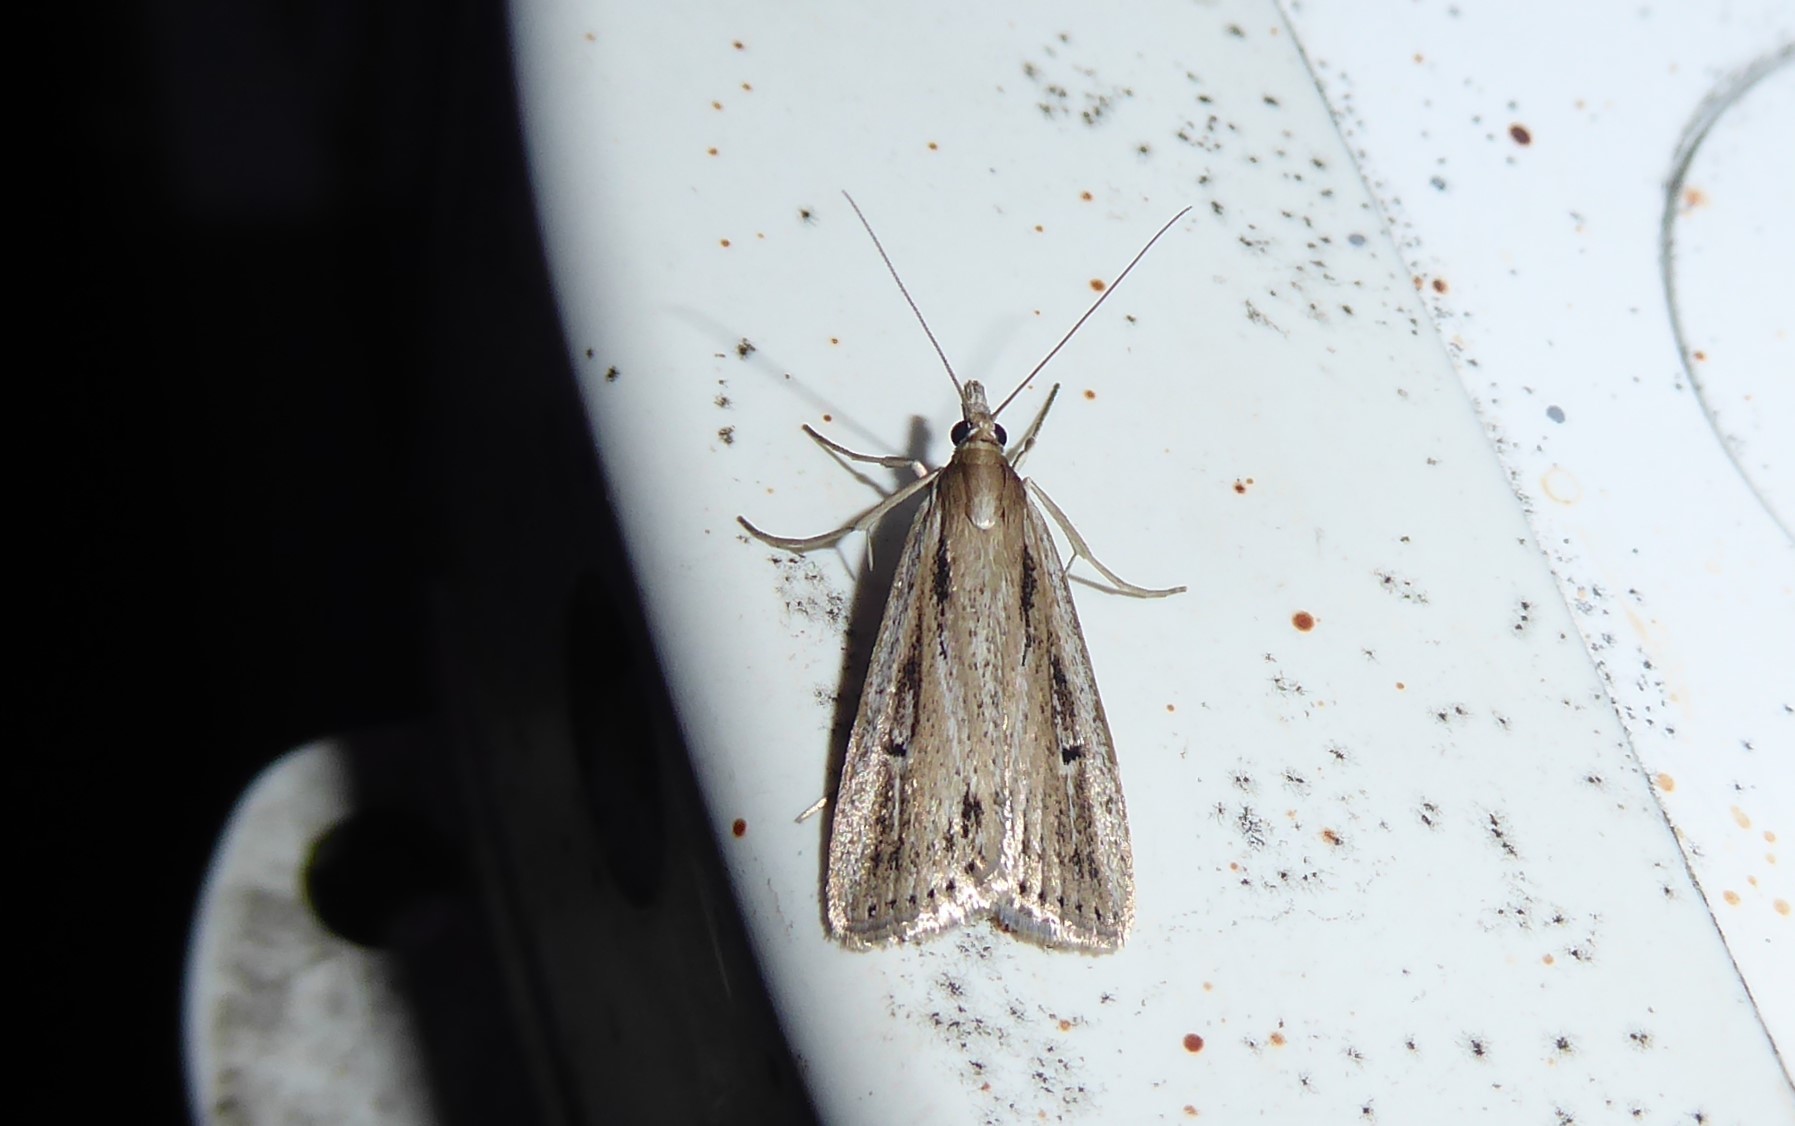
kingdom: Animalia
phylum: Arthropoda
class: Insecta
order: Lepidoptera
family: Crambidae
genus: Eudonia
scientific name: Eudonia sabulosella
